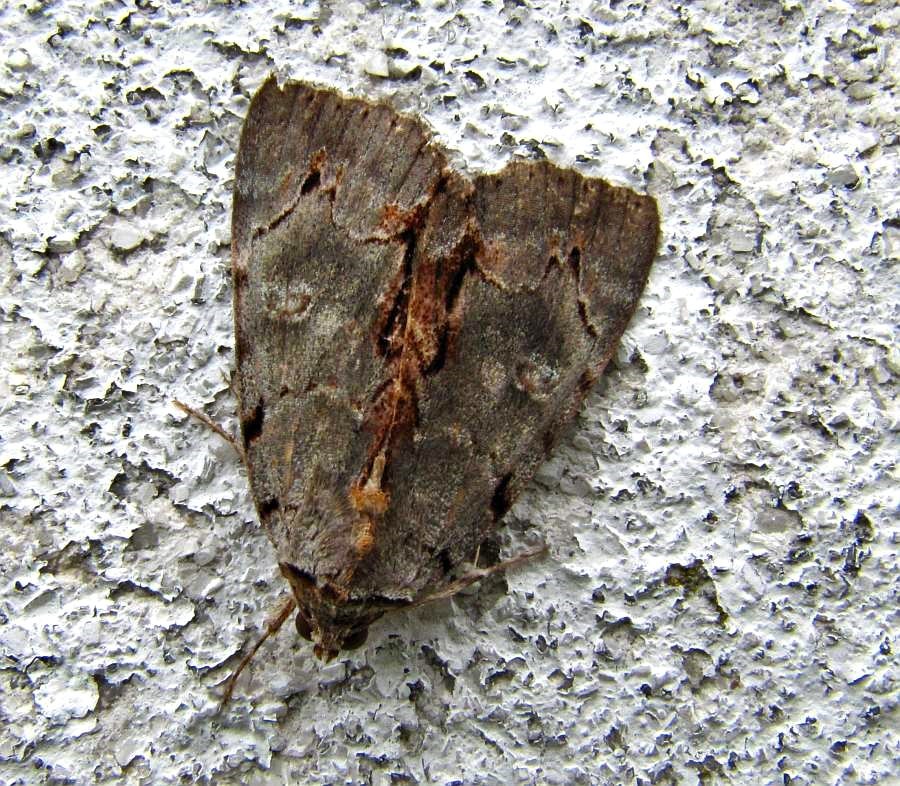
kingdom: Animalia
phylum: Arthropoda
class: Insecta
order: Lepidoptera
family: Erebidae
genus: Catocala
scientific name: Catocala grynea
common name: Woody underwing
